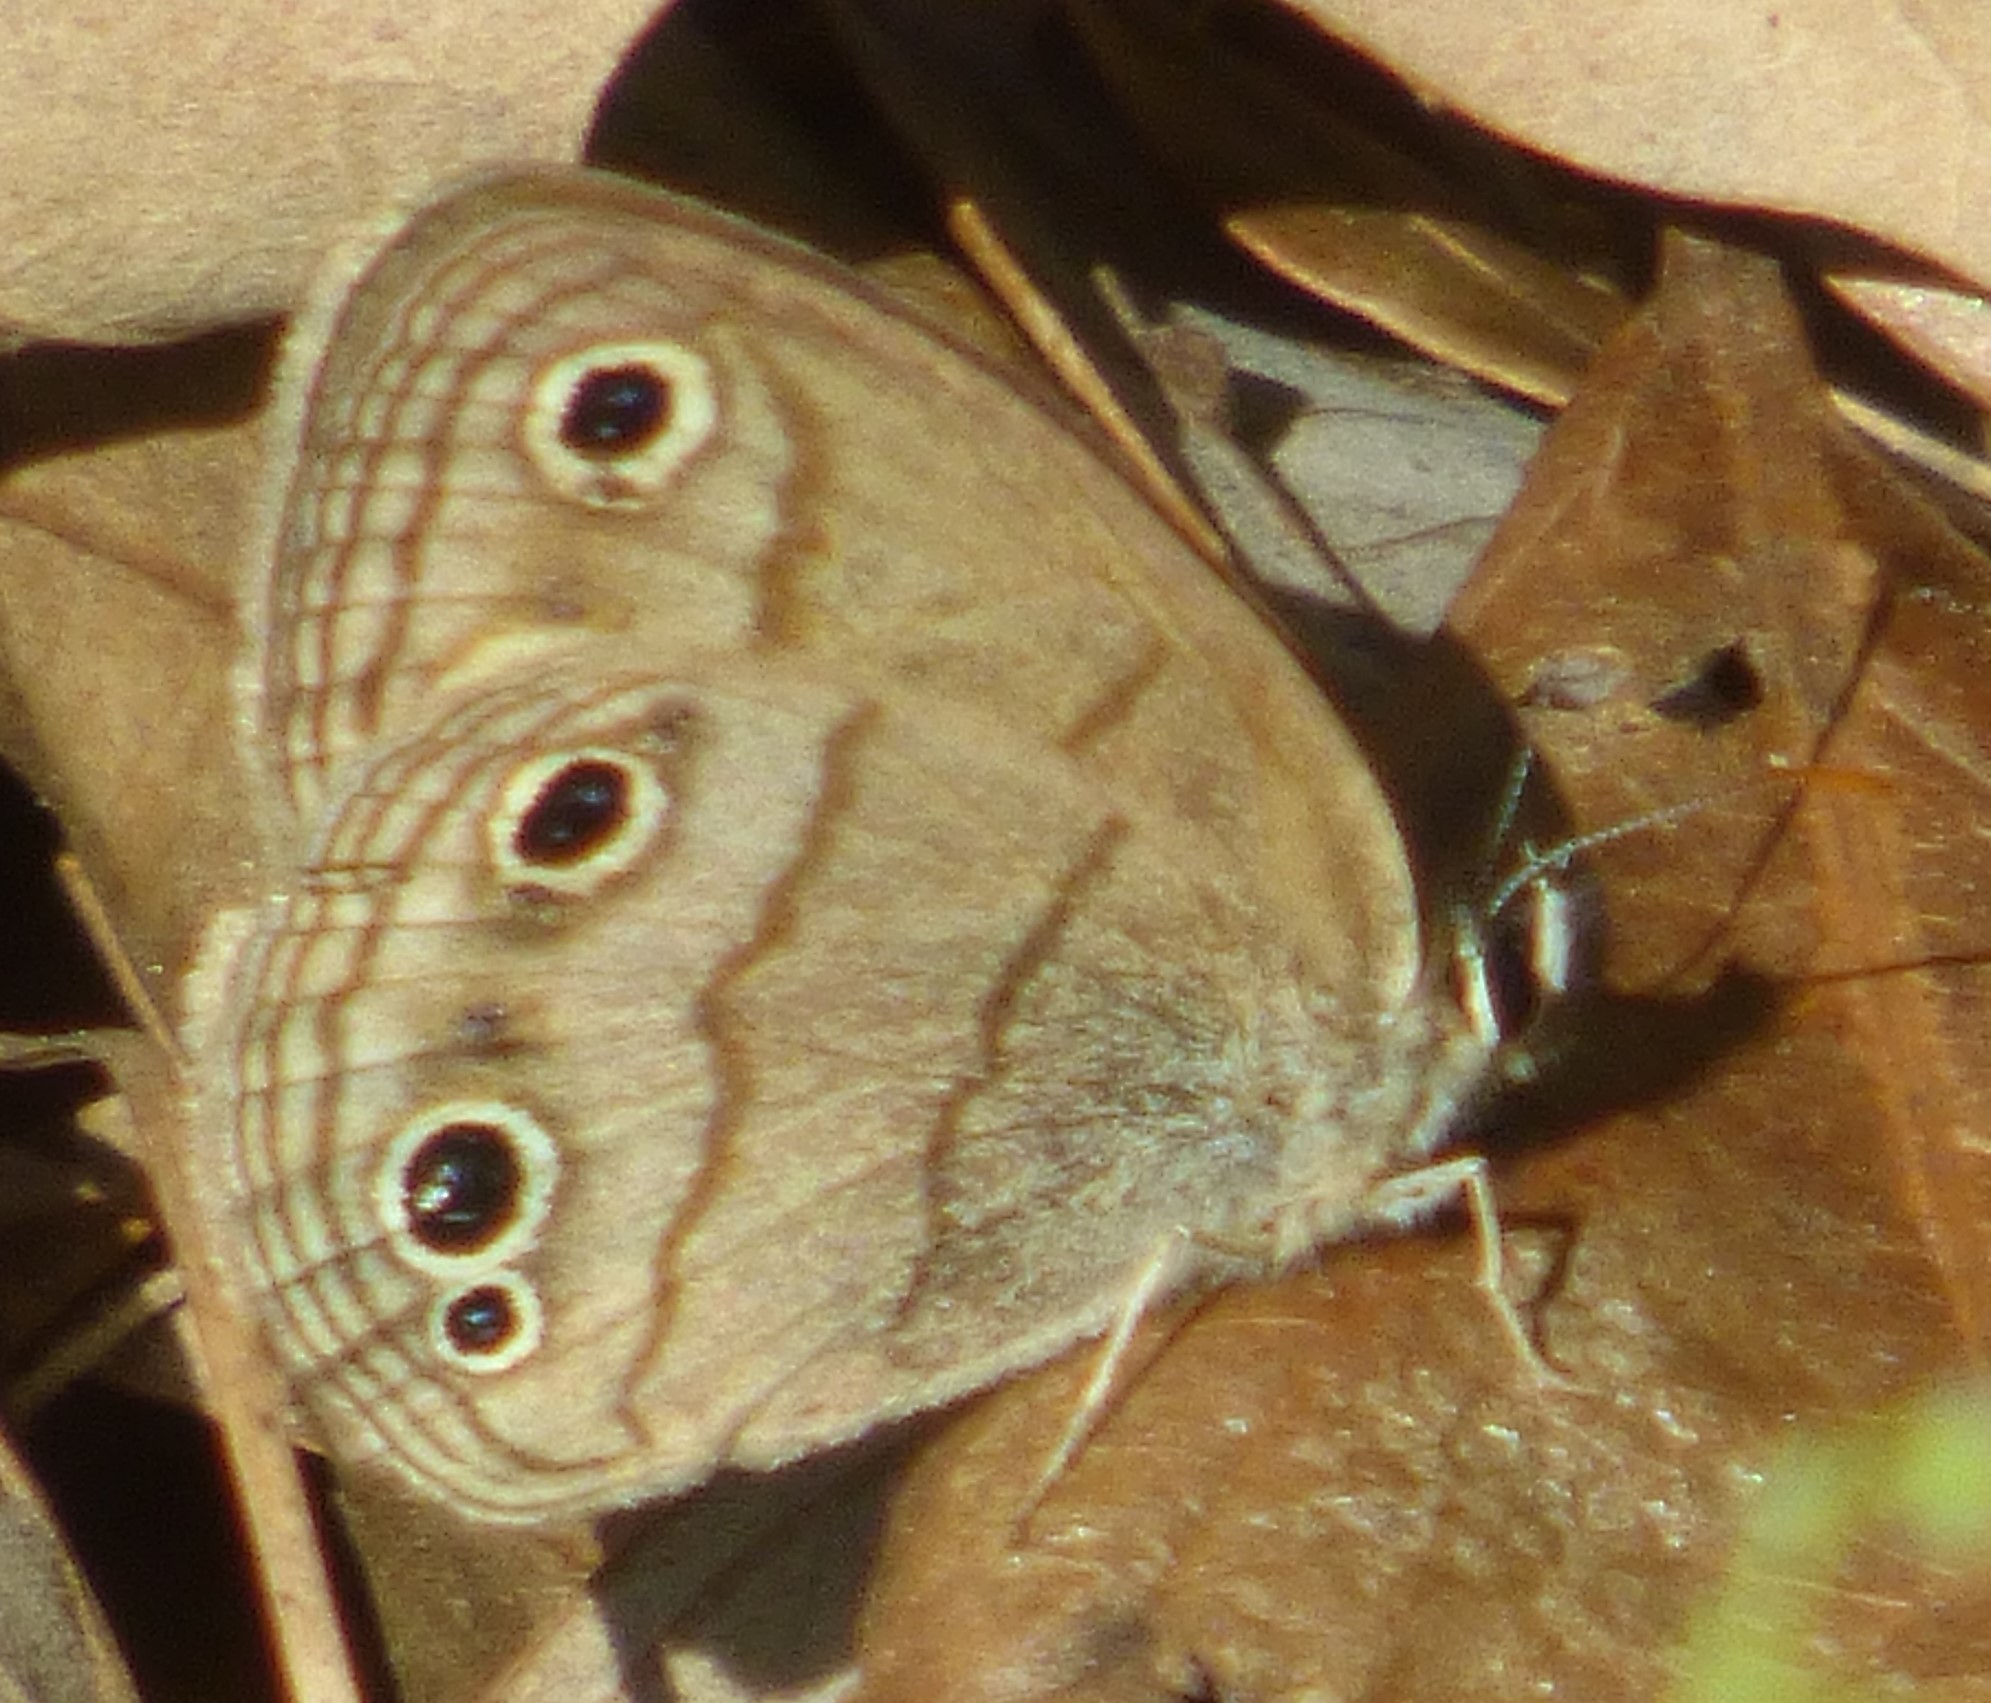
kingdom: Animalia
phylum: Arthropoda
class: Insecta
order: Lepidoptera
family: Nymphalidae
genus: Euptychia
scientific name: Euptychia cymela
